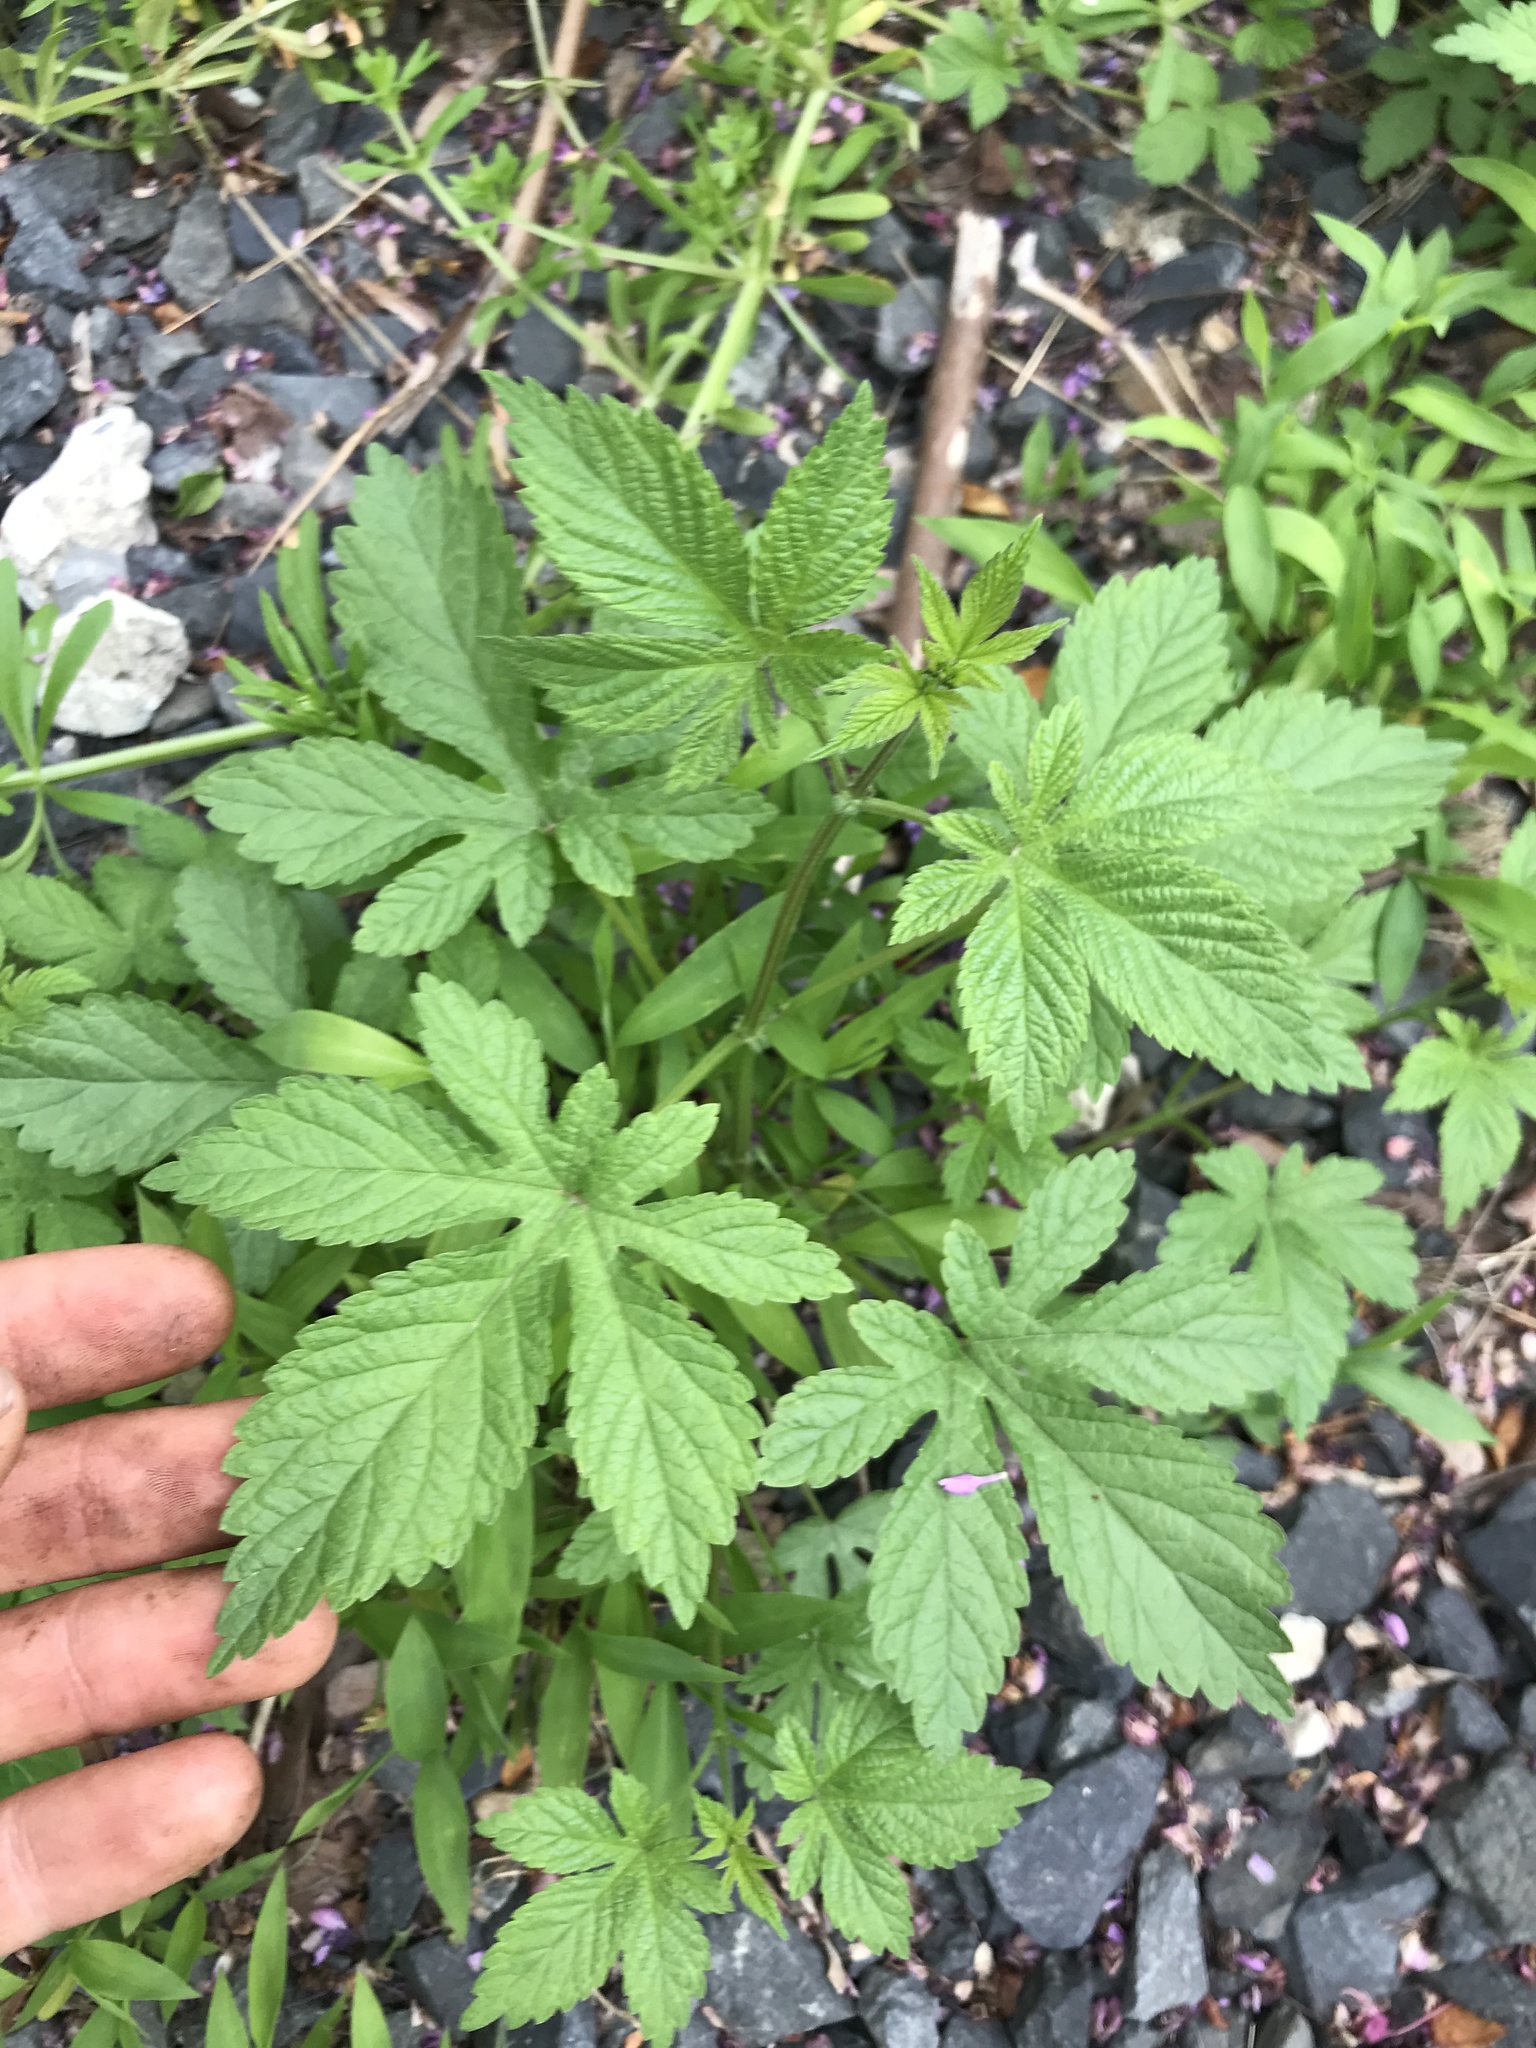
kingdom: Plantae
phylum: Tracheophyta
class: Magnoliopsida
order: Rosales
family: Cannabaceae
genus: Humulus
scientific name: Humulus scandens
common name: Japanese hop
